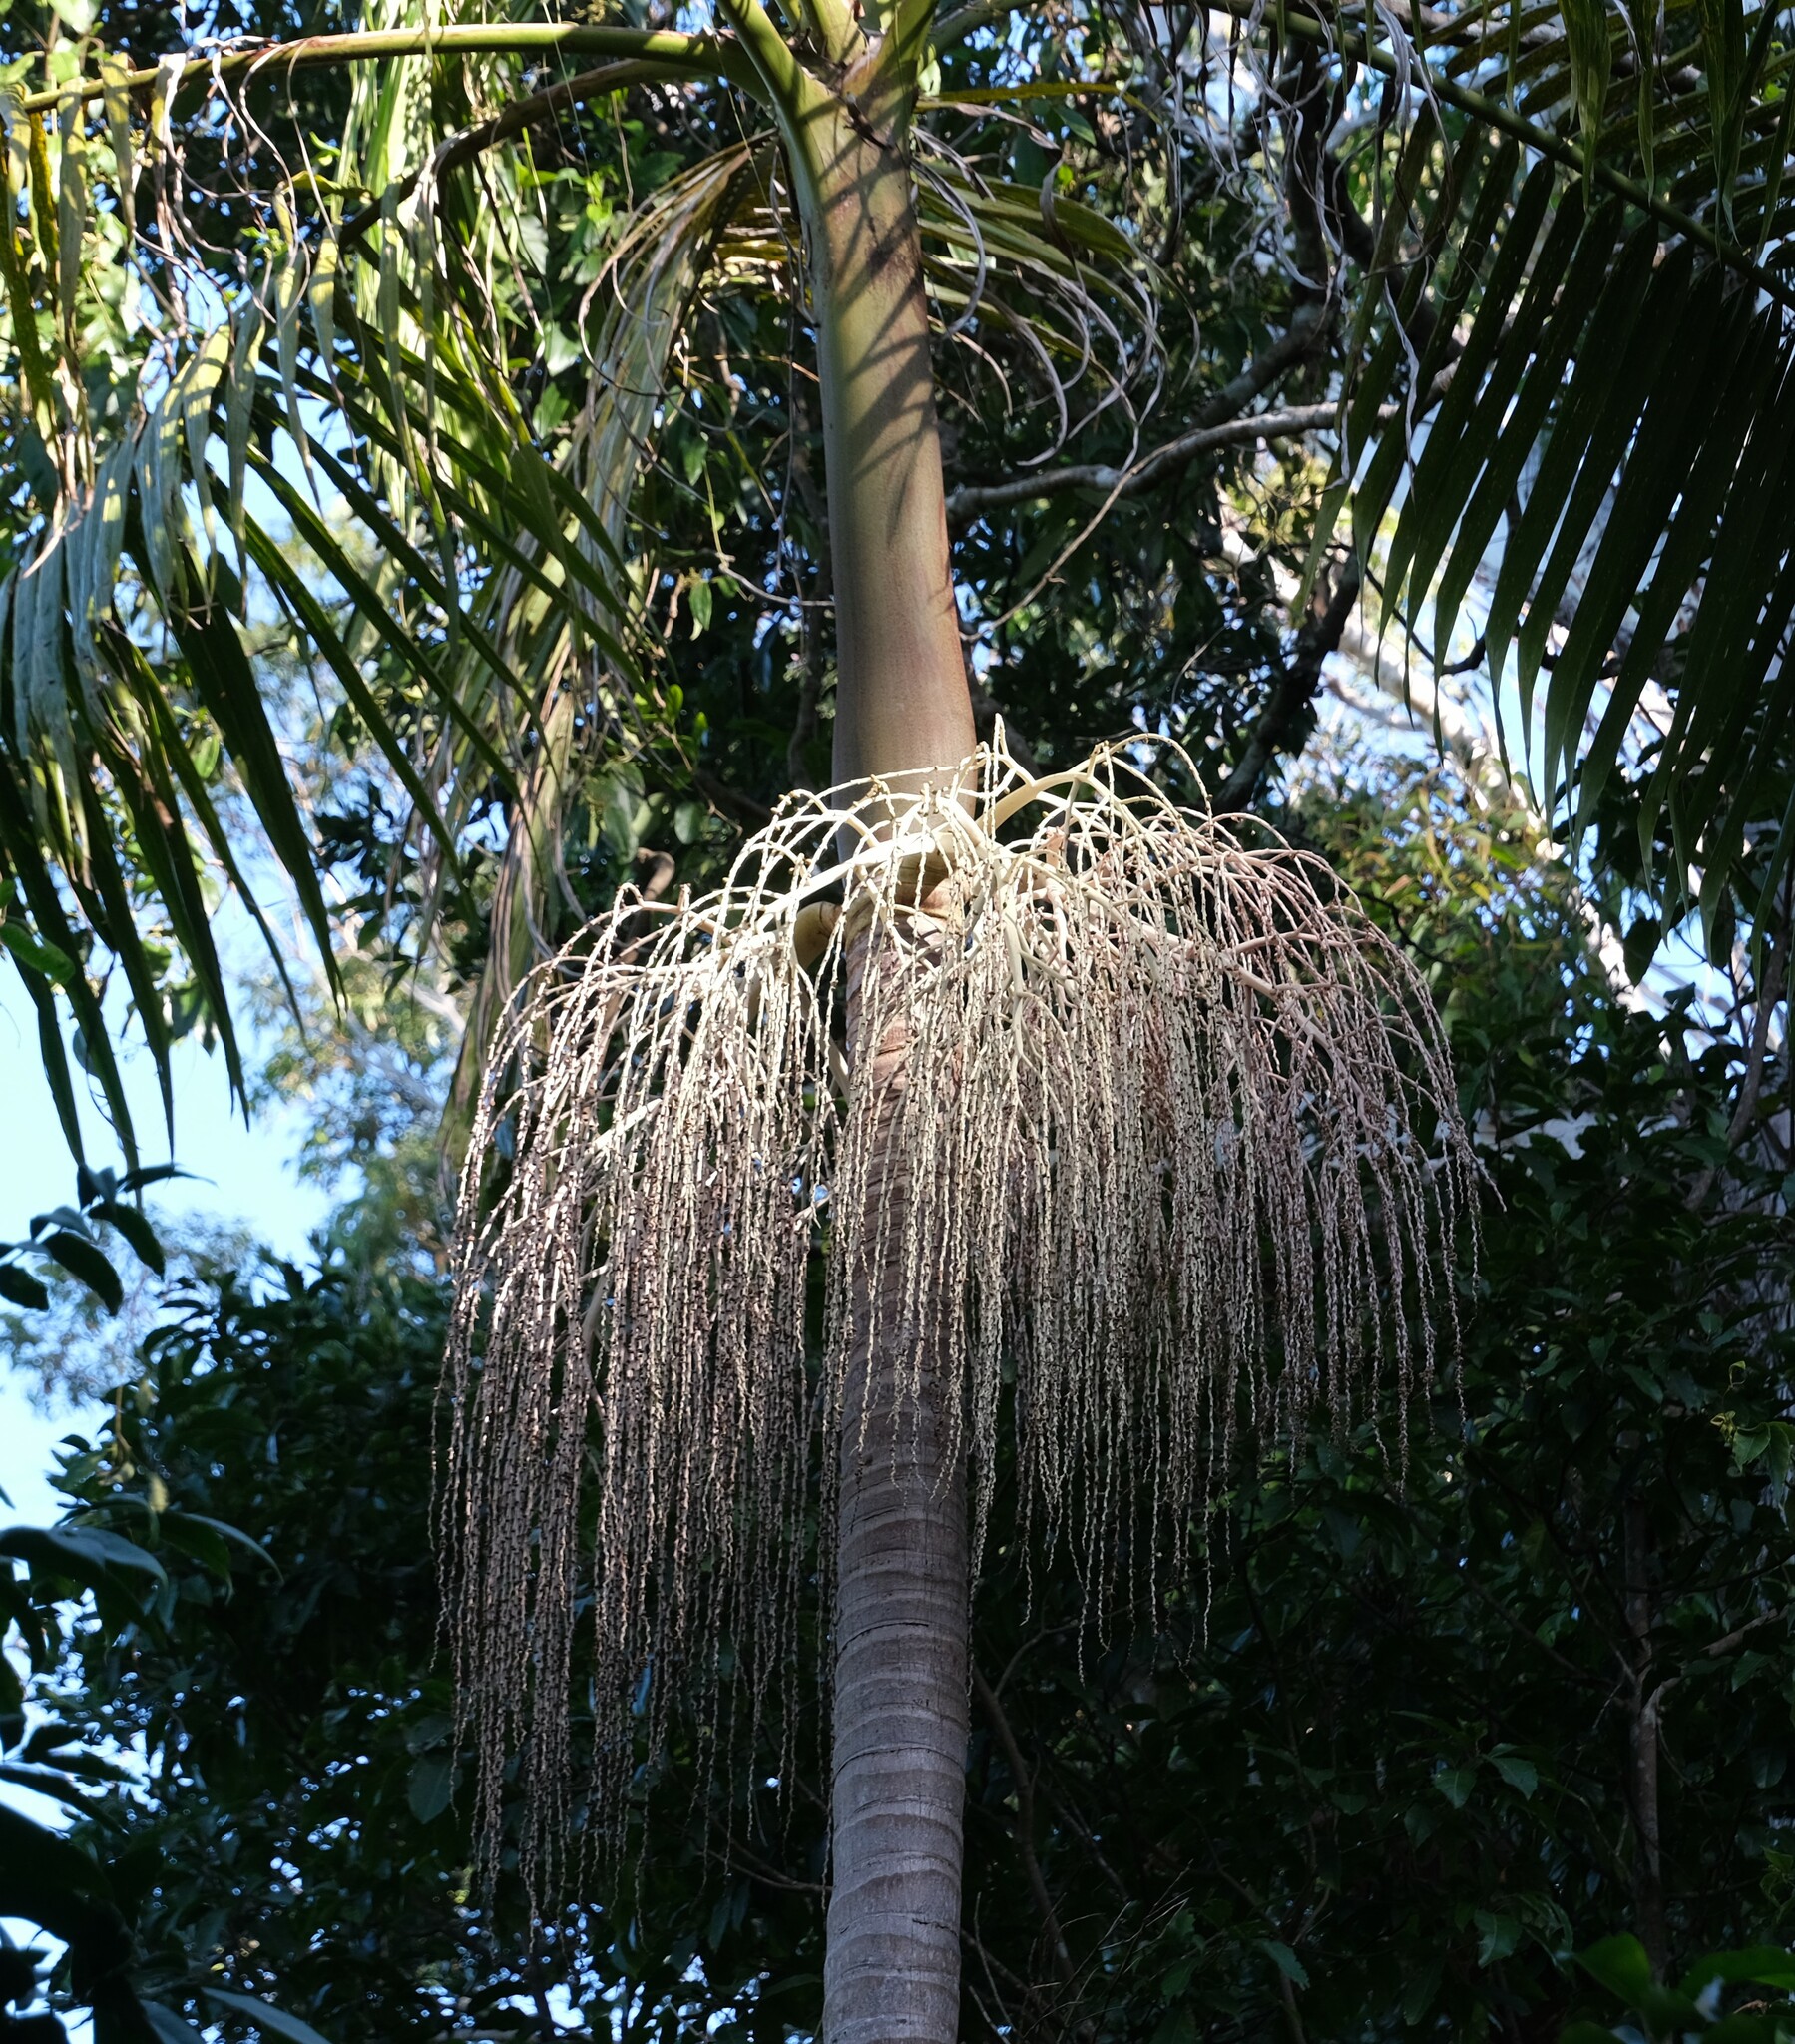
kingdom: Plantae
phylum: Tracheophyta
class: Liliopsida
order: Arecales
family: Arecaceae
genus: Archontophoenix
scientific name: Archontophoenix cunninghamiana
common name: Piccabeen bangalow palm
